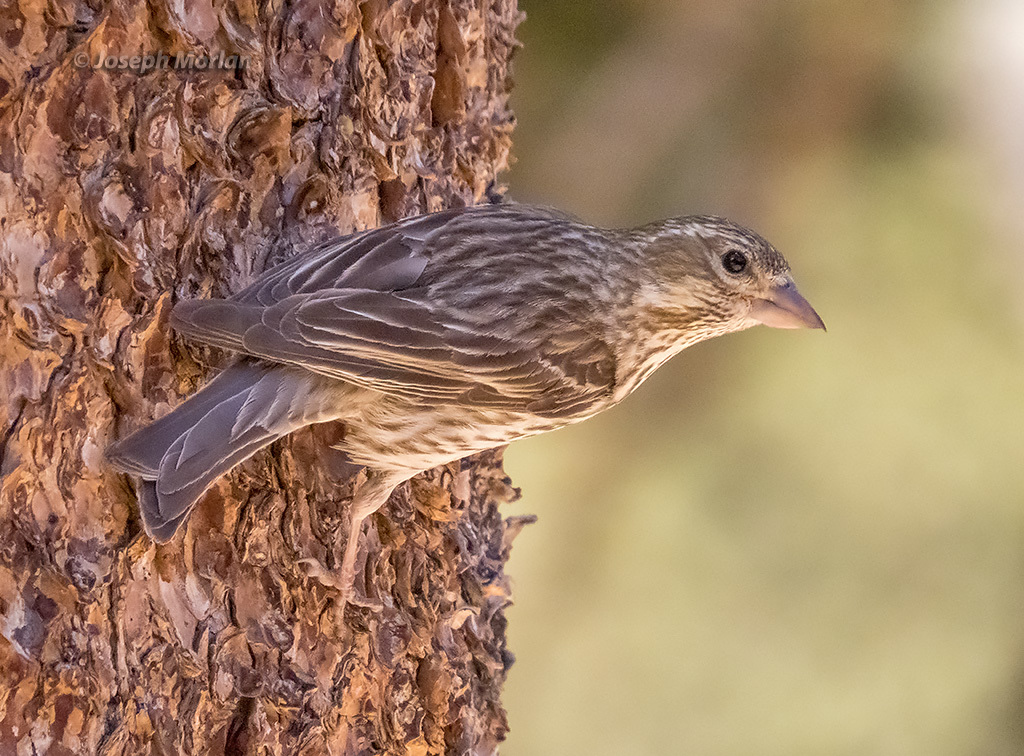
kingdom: Animalia
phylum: Chordata
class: Aves
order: Passeriformes
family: Fringillidae
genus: Haemorhous
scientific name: Haemorhous cassinii
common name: Cassin's finch
